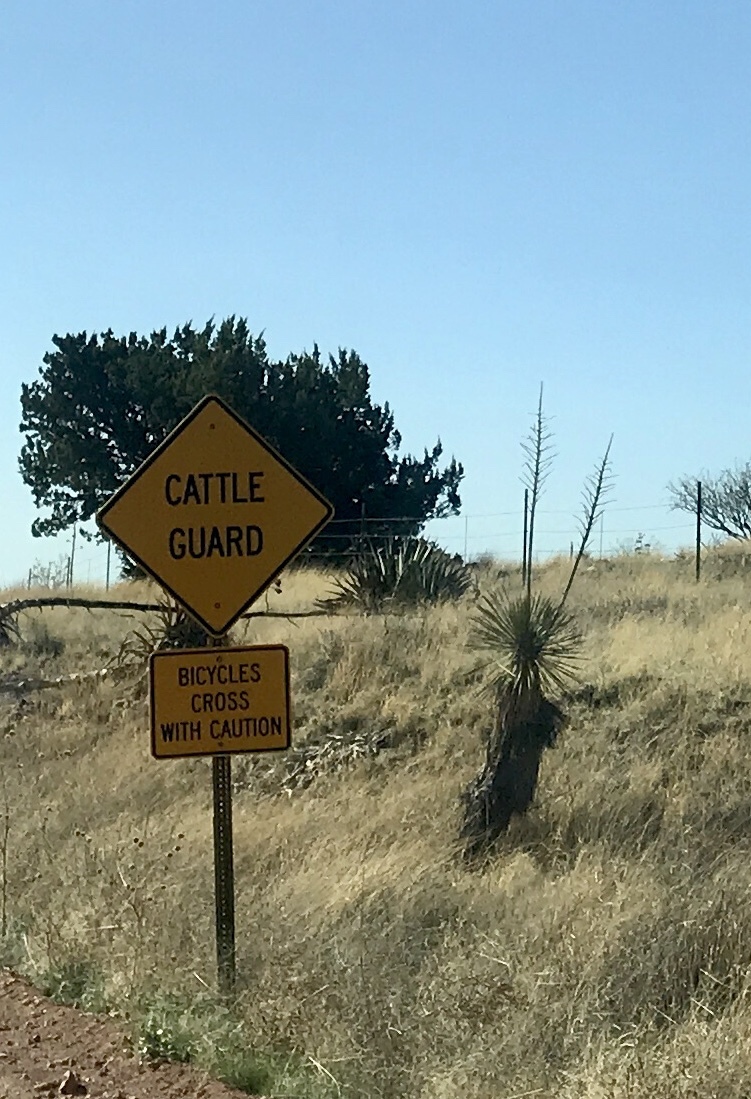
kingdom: Plantae
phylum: Tracheophyta
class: Liliopsida
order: Asparagales
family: Asparagaceae
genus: Yucca
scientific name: Yucca elata
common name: Palmella
